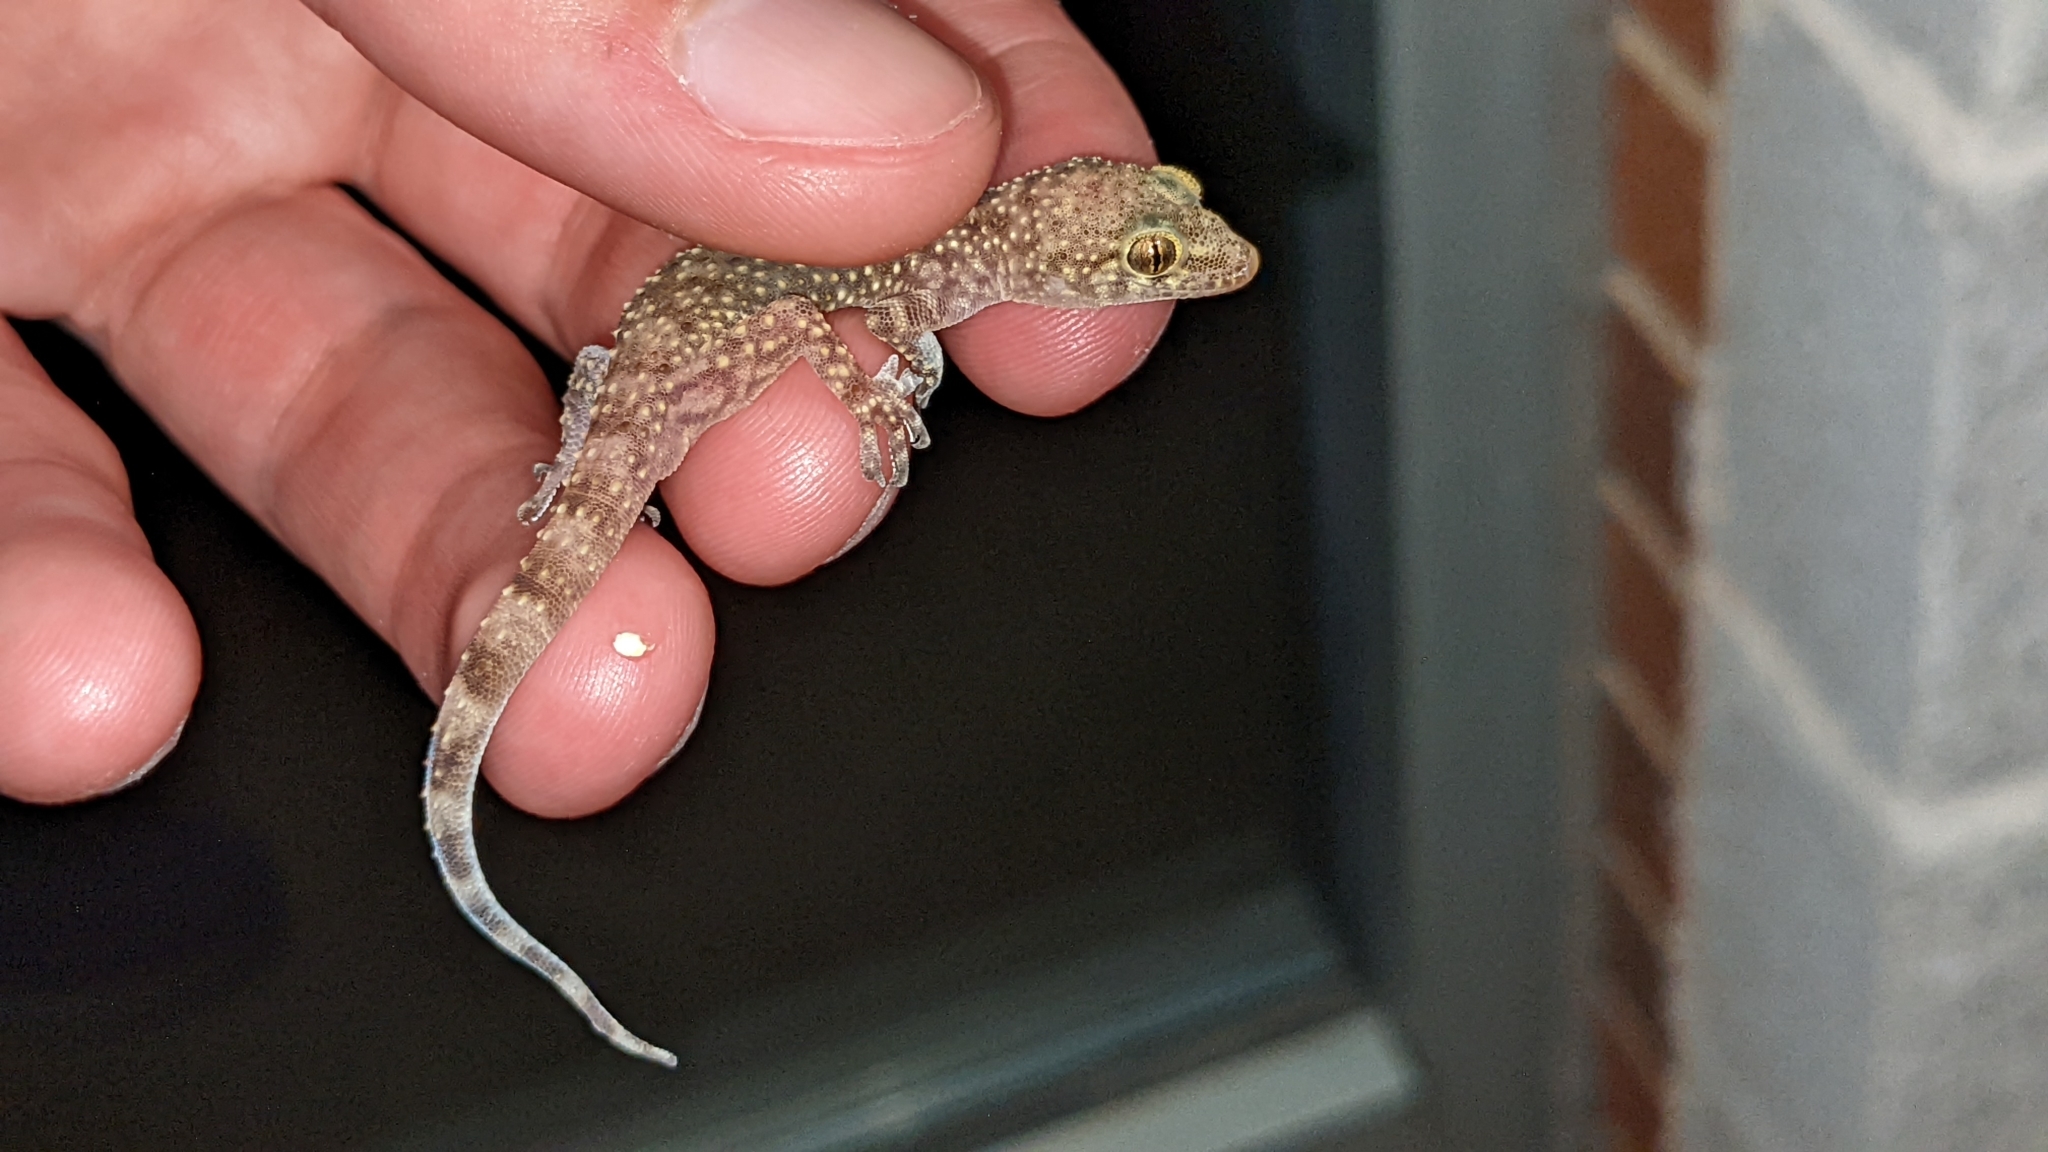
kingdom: Animalia
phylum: Chordata
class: Squamata
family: Gekkonidae
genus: Hemidactylus
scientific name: Hemidactylus turcicus
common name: Turkish gecko
